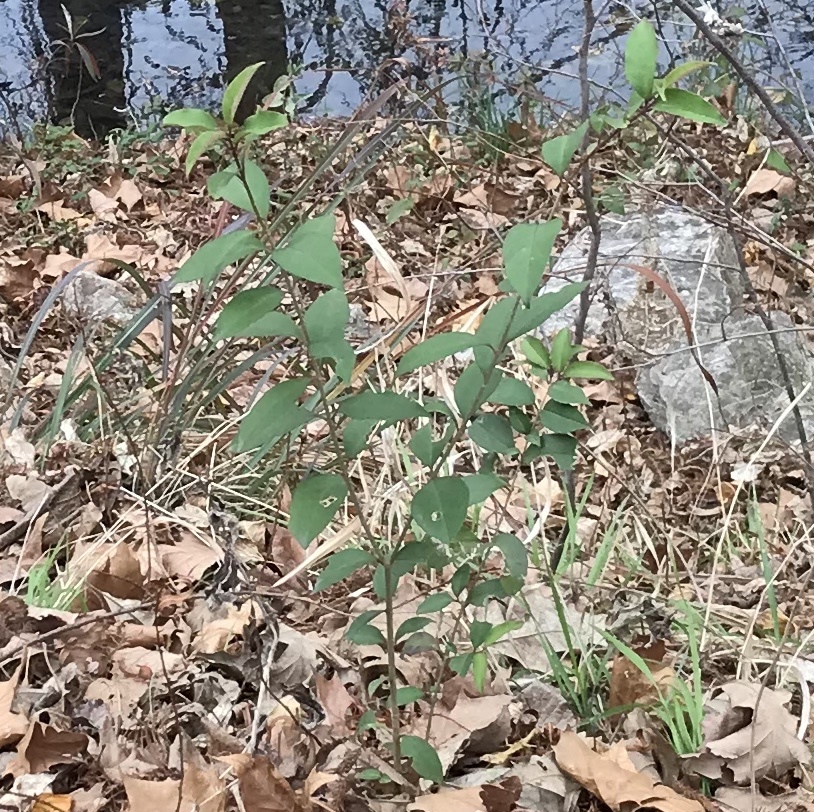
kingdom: Plantae
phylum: Tracheophyta
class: Magnoliopsida
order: Lamiales
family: Oleaceae
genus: Ligustrum
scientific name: Ligustrum lucidum
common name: Glossy privet
